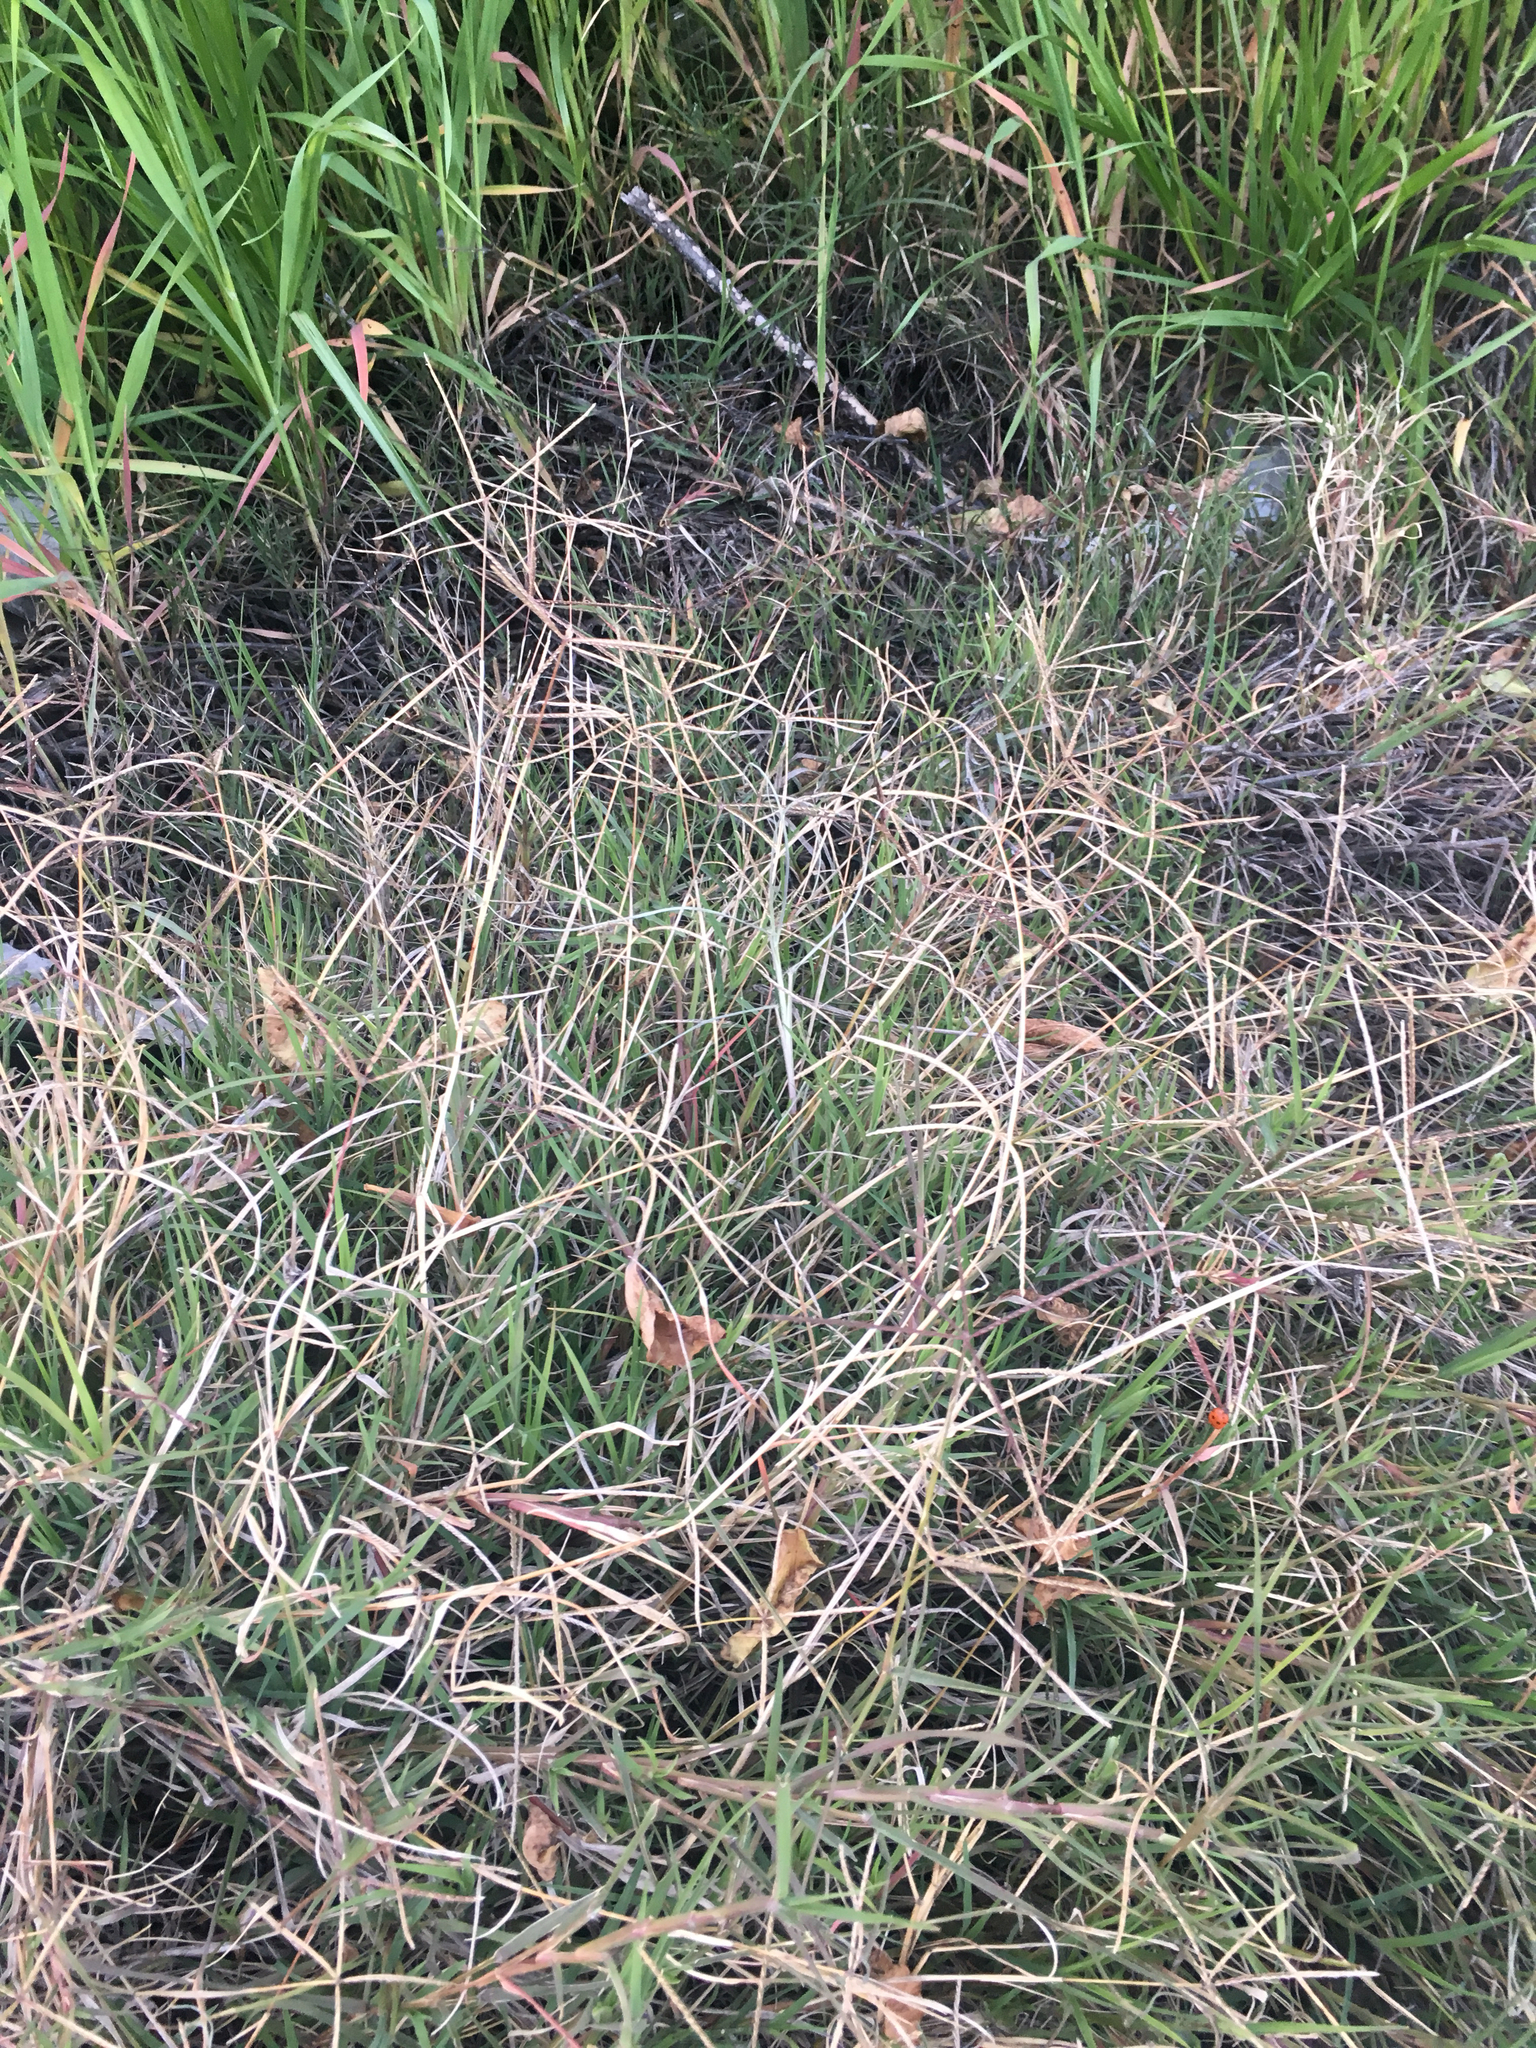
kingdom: Plantae
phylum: Tracheophyta
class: Liliopsida
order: Poales
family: Poaceae
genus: Cynodon
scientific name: Cynodon dactylon
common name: Bermuda grass
